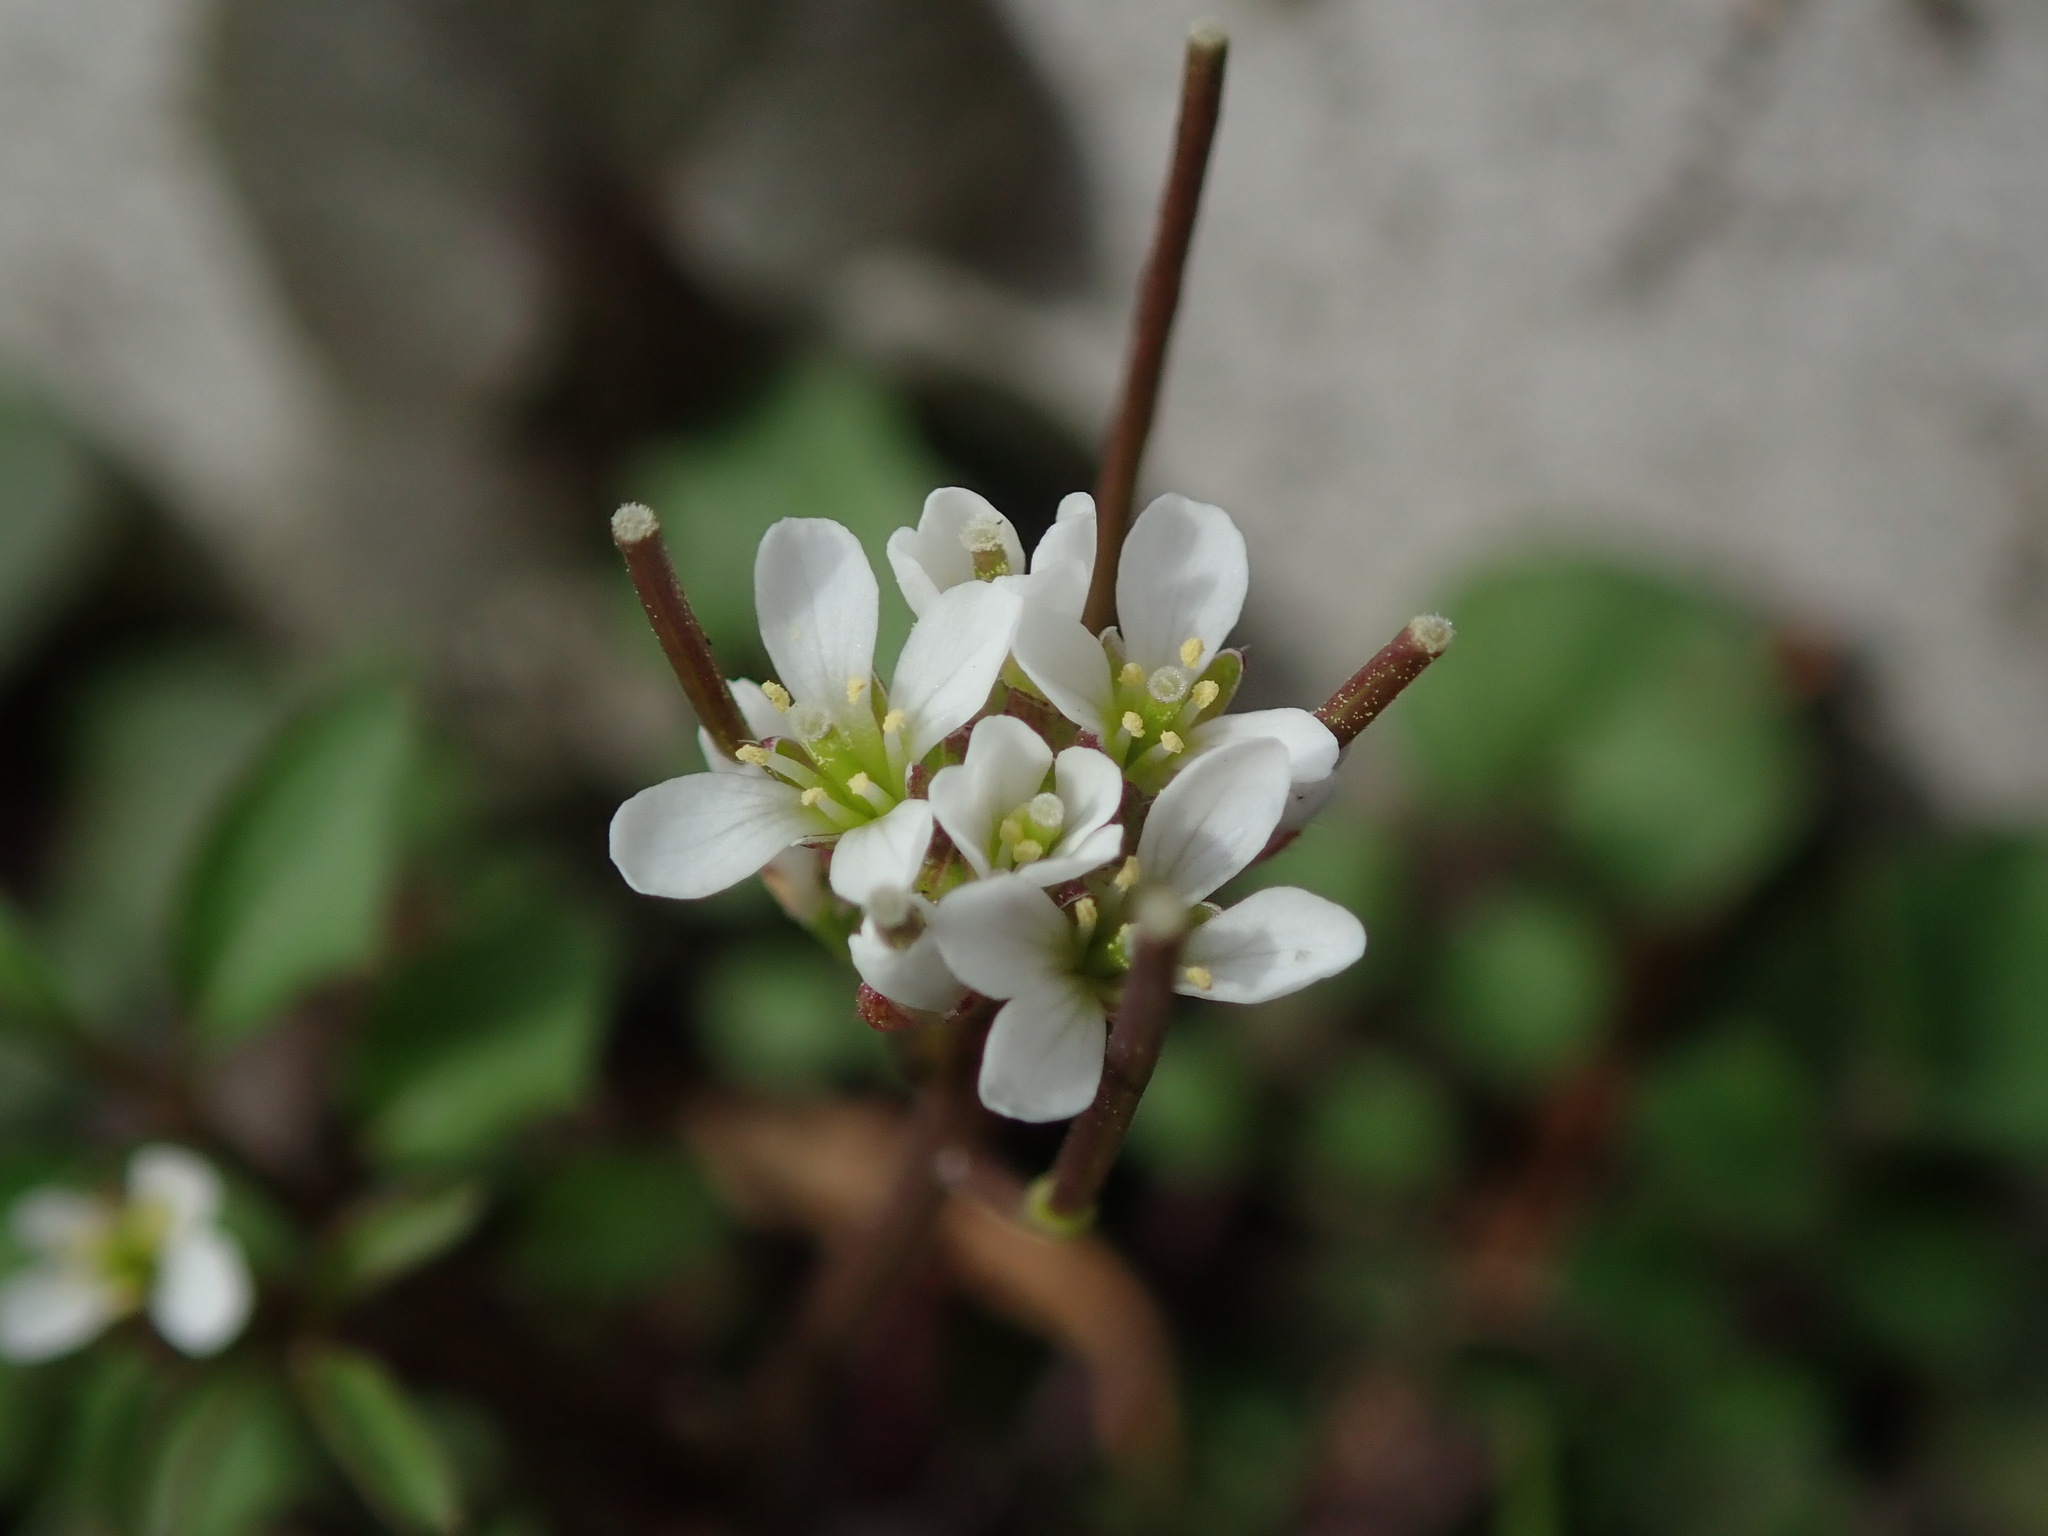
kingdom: Plantae
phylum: Tracheophyta
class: Magnoliopsida
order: Brassicales
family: Brassicaceae
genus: Cardamine
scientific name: Cardamine flexuosa
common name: Woodland bittercress
